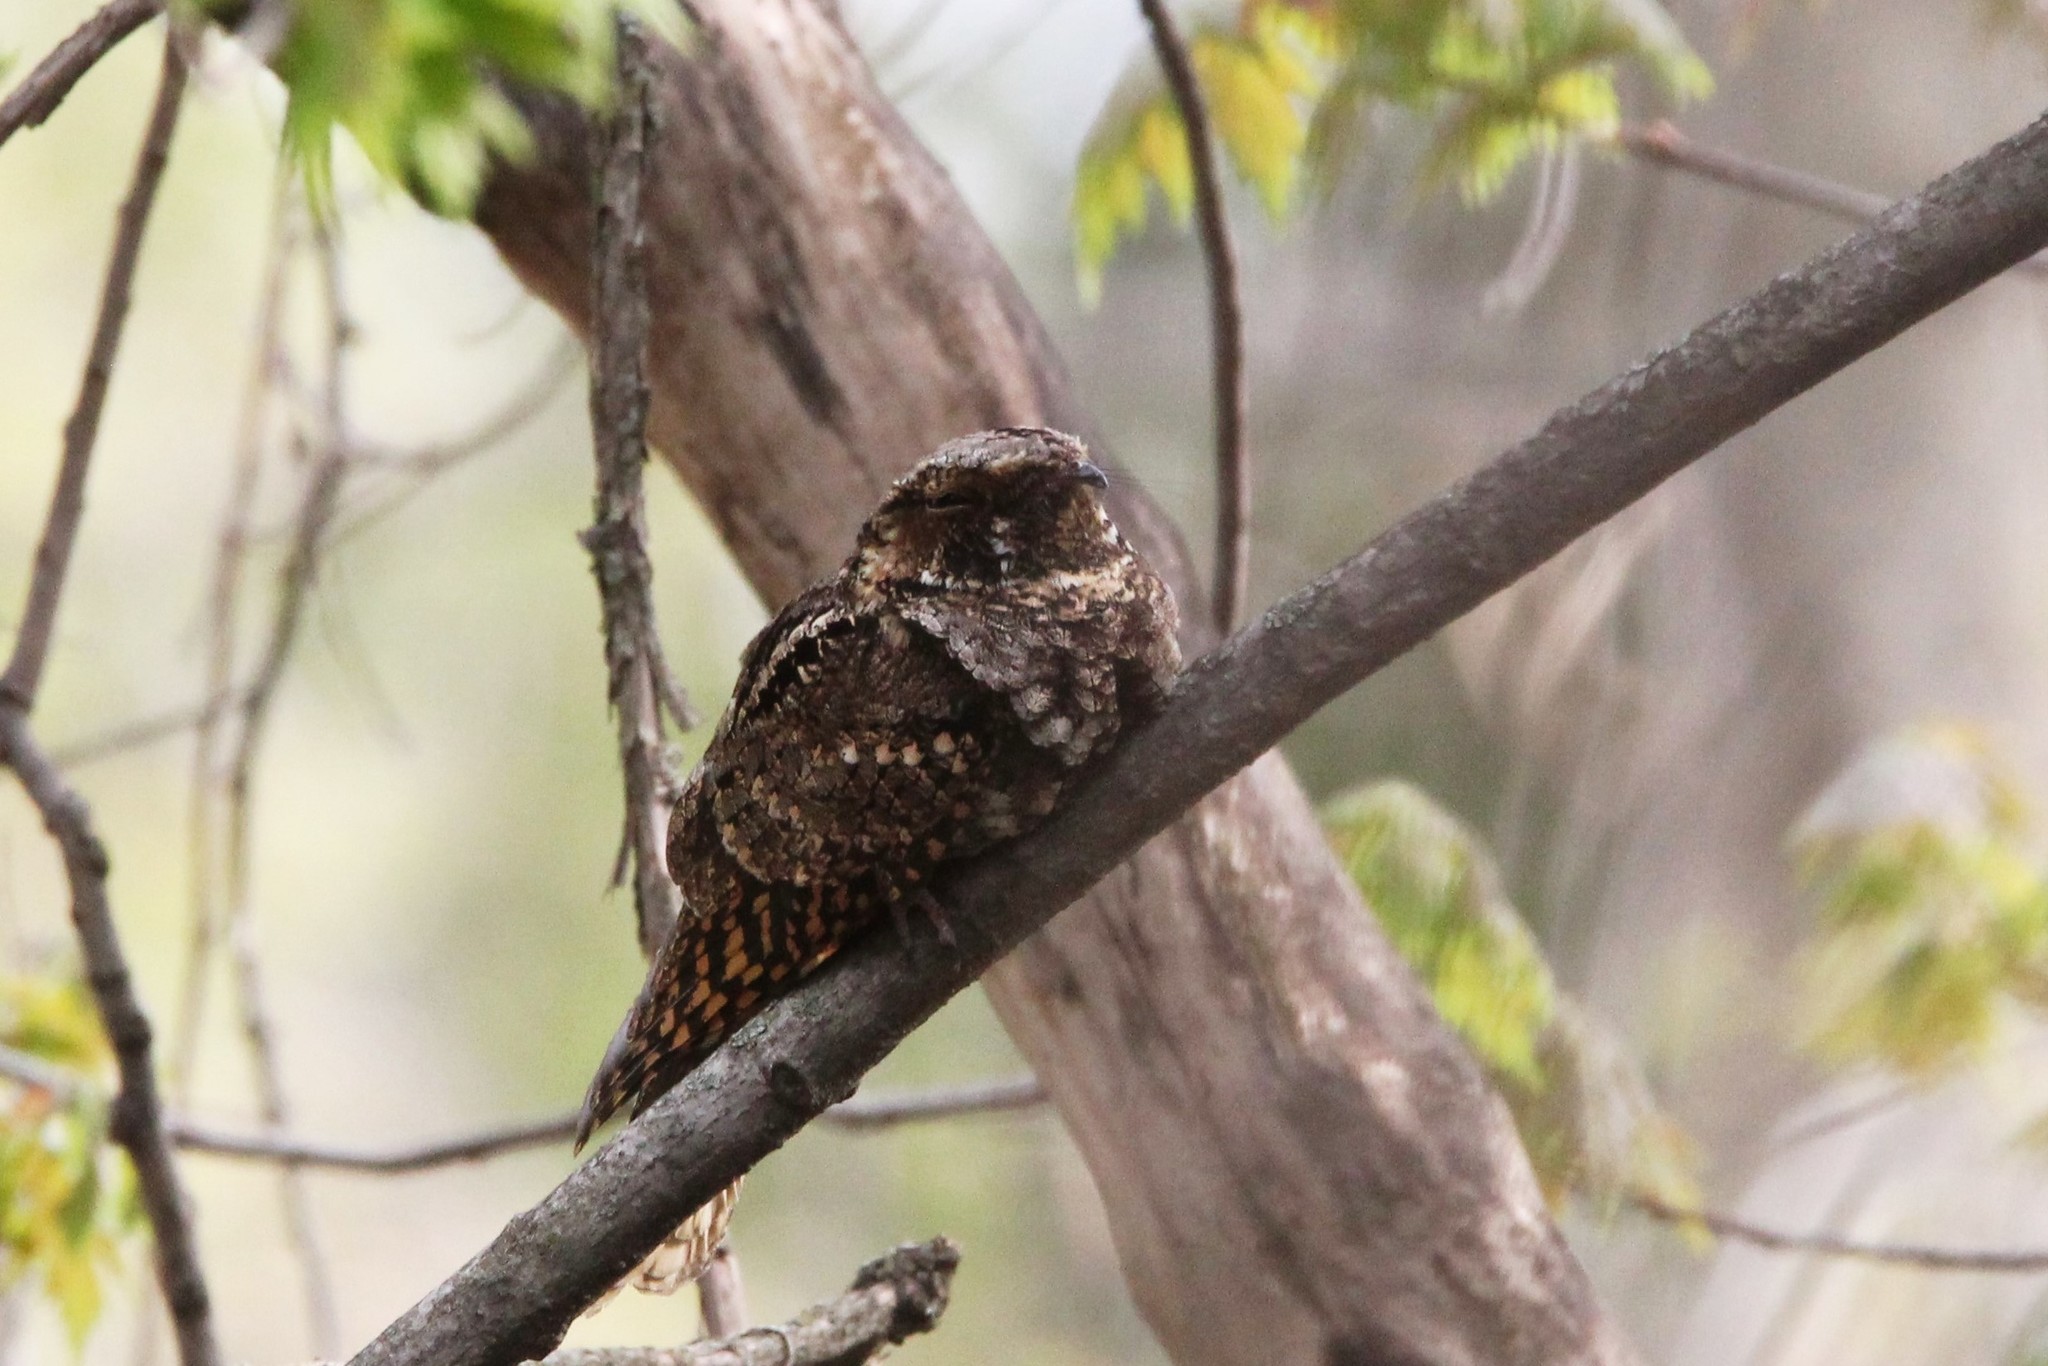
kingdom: Animalia
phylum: Chordata
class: Aves
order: Caprimulgiformes
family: Caprimulgidae
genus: Antrostomus
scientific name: Antrostomus vociferus
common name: Eastern whip-poor-will
